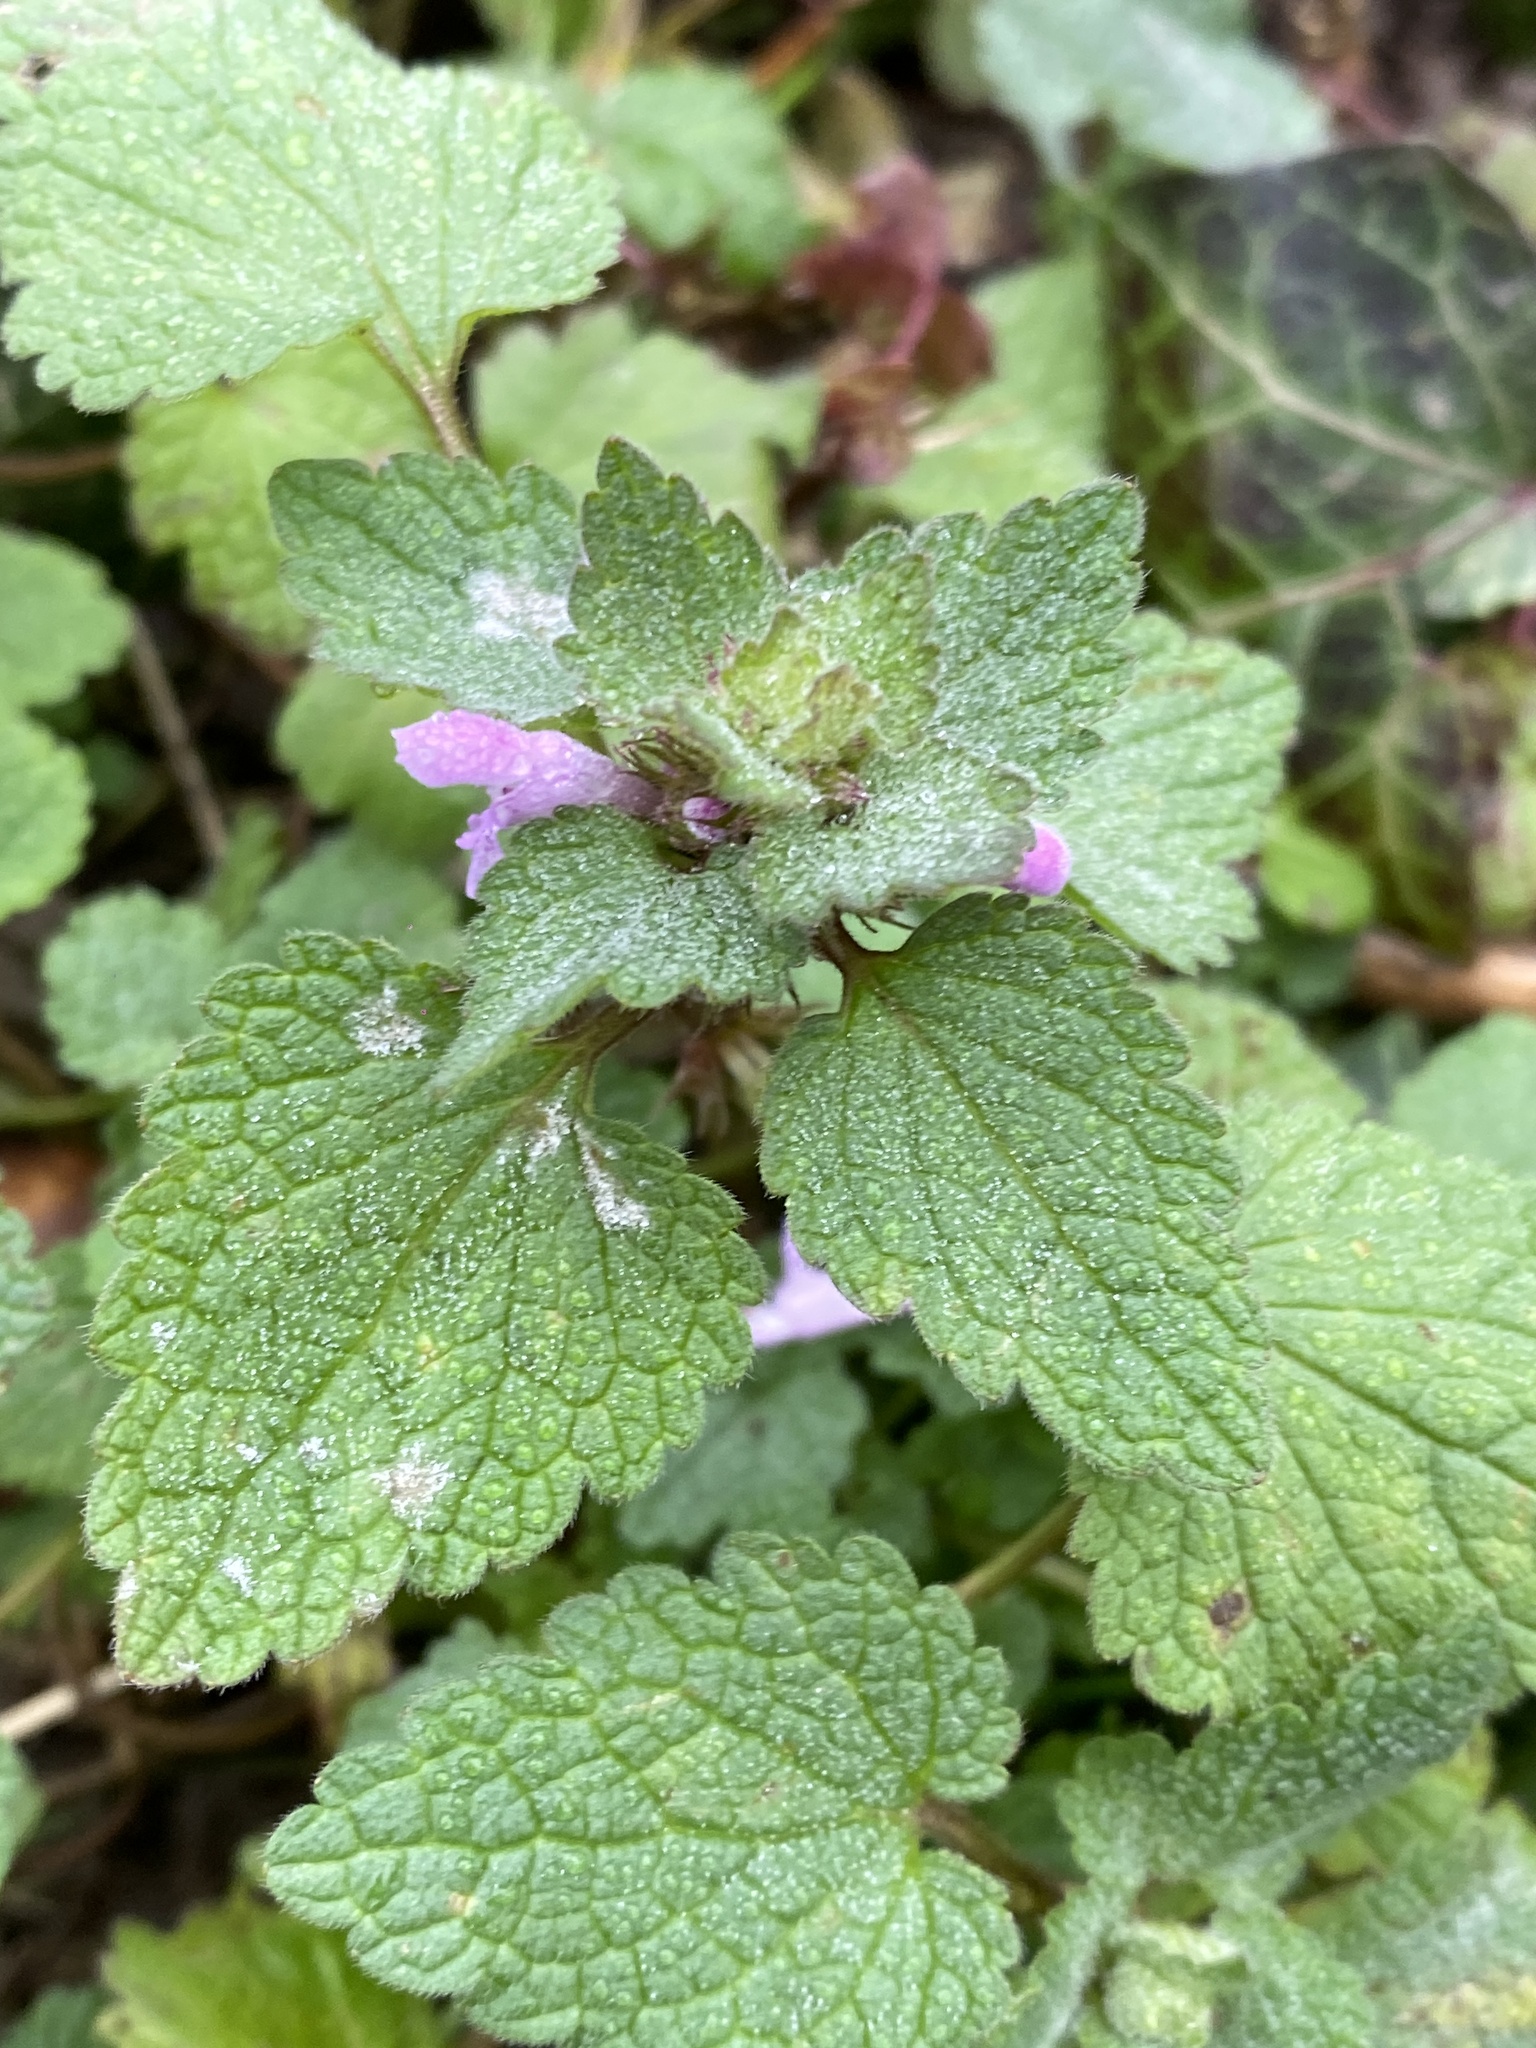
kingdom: Plantae
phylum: Tracheophyta
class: Magnoliopsida
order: Lamiales
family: Lamiaceae
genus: Lamium
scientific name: Lamium purpureum
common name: Red dead-nettle
